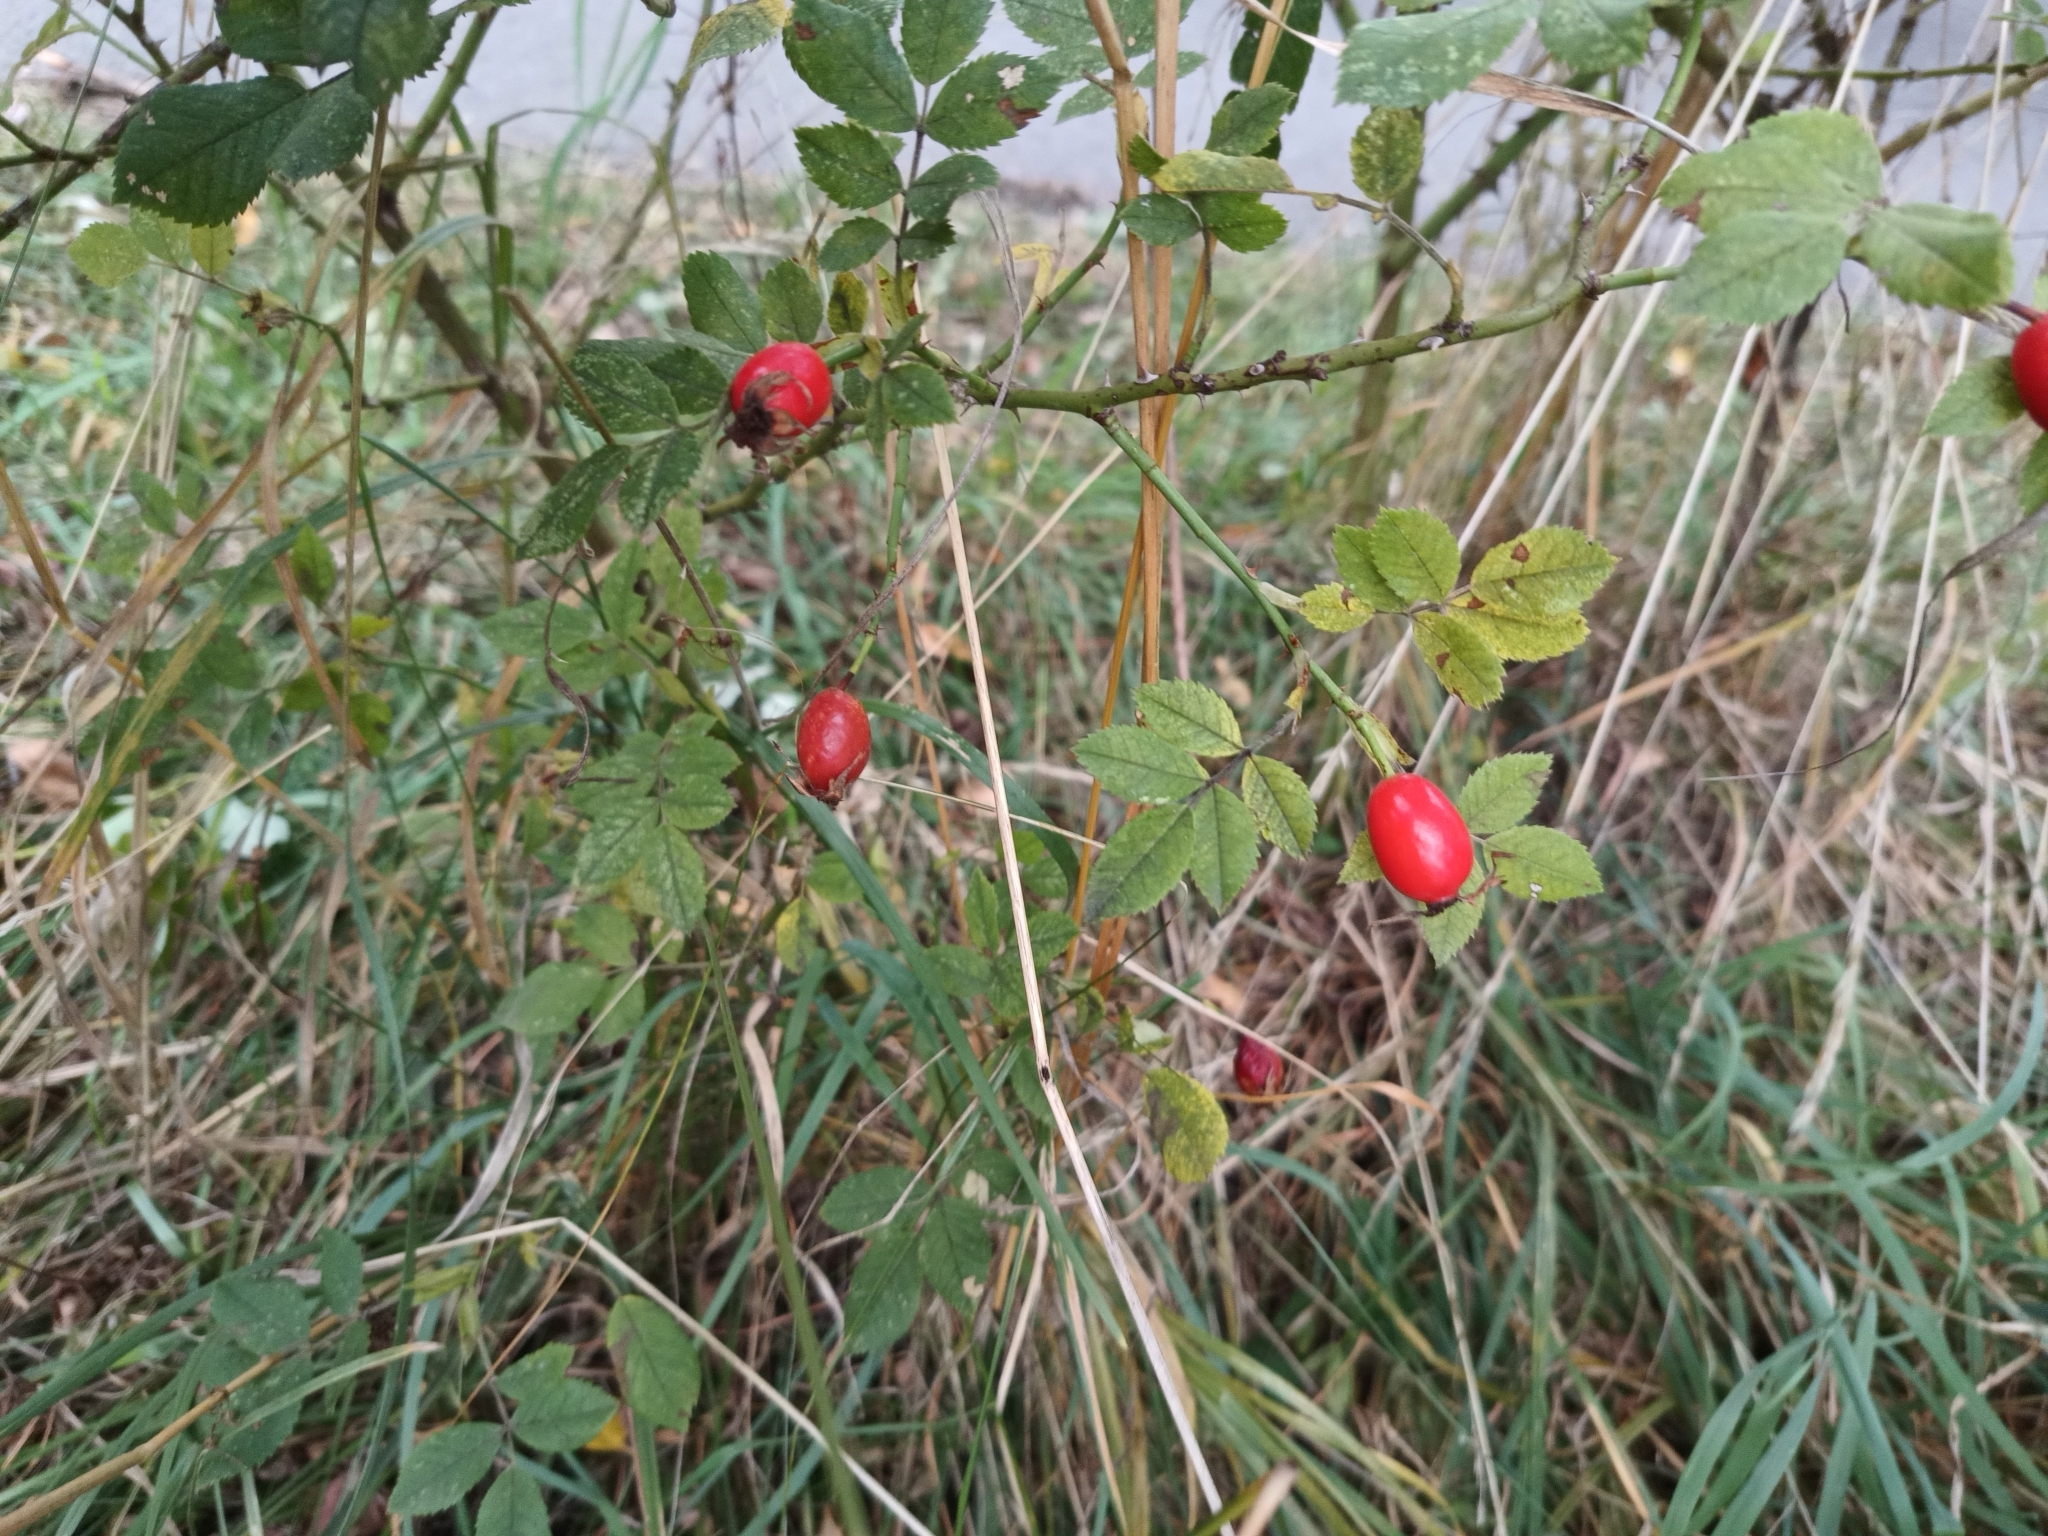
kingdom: Plantae
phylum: Tracheophyta
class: Magnoliopsida
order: Rosales
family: Rosaceae
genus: Rosa
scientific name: Rosa corymbifera
